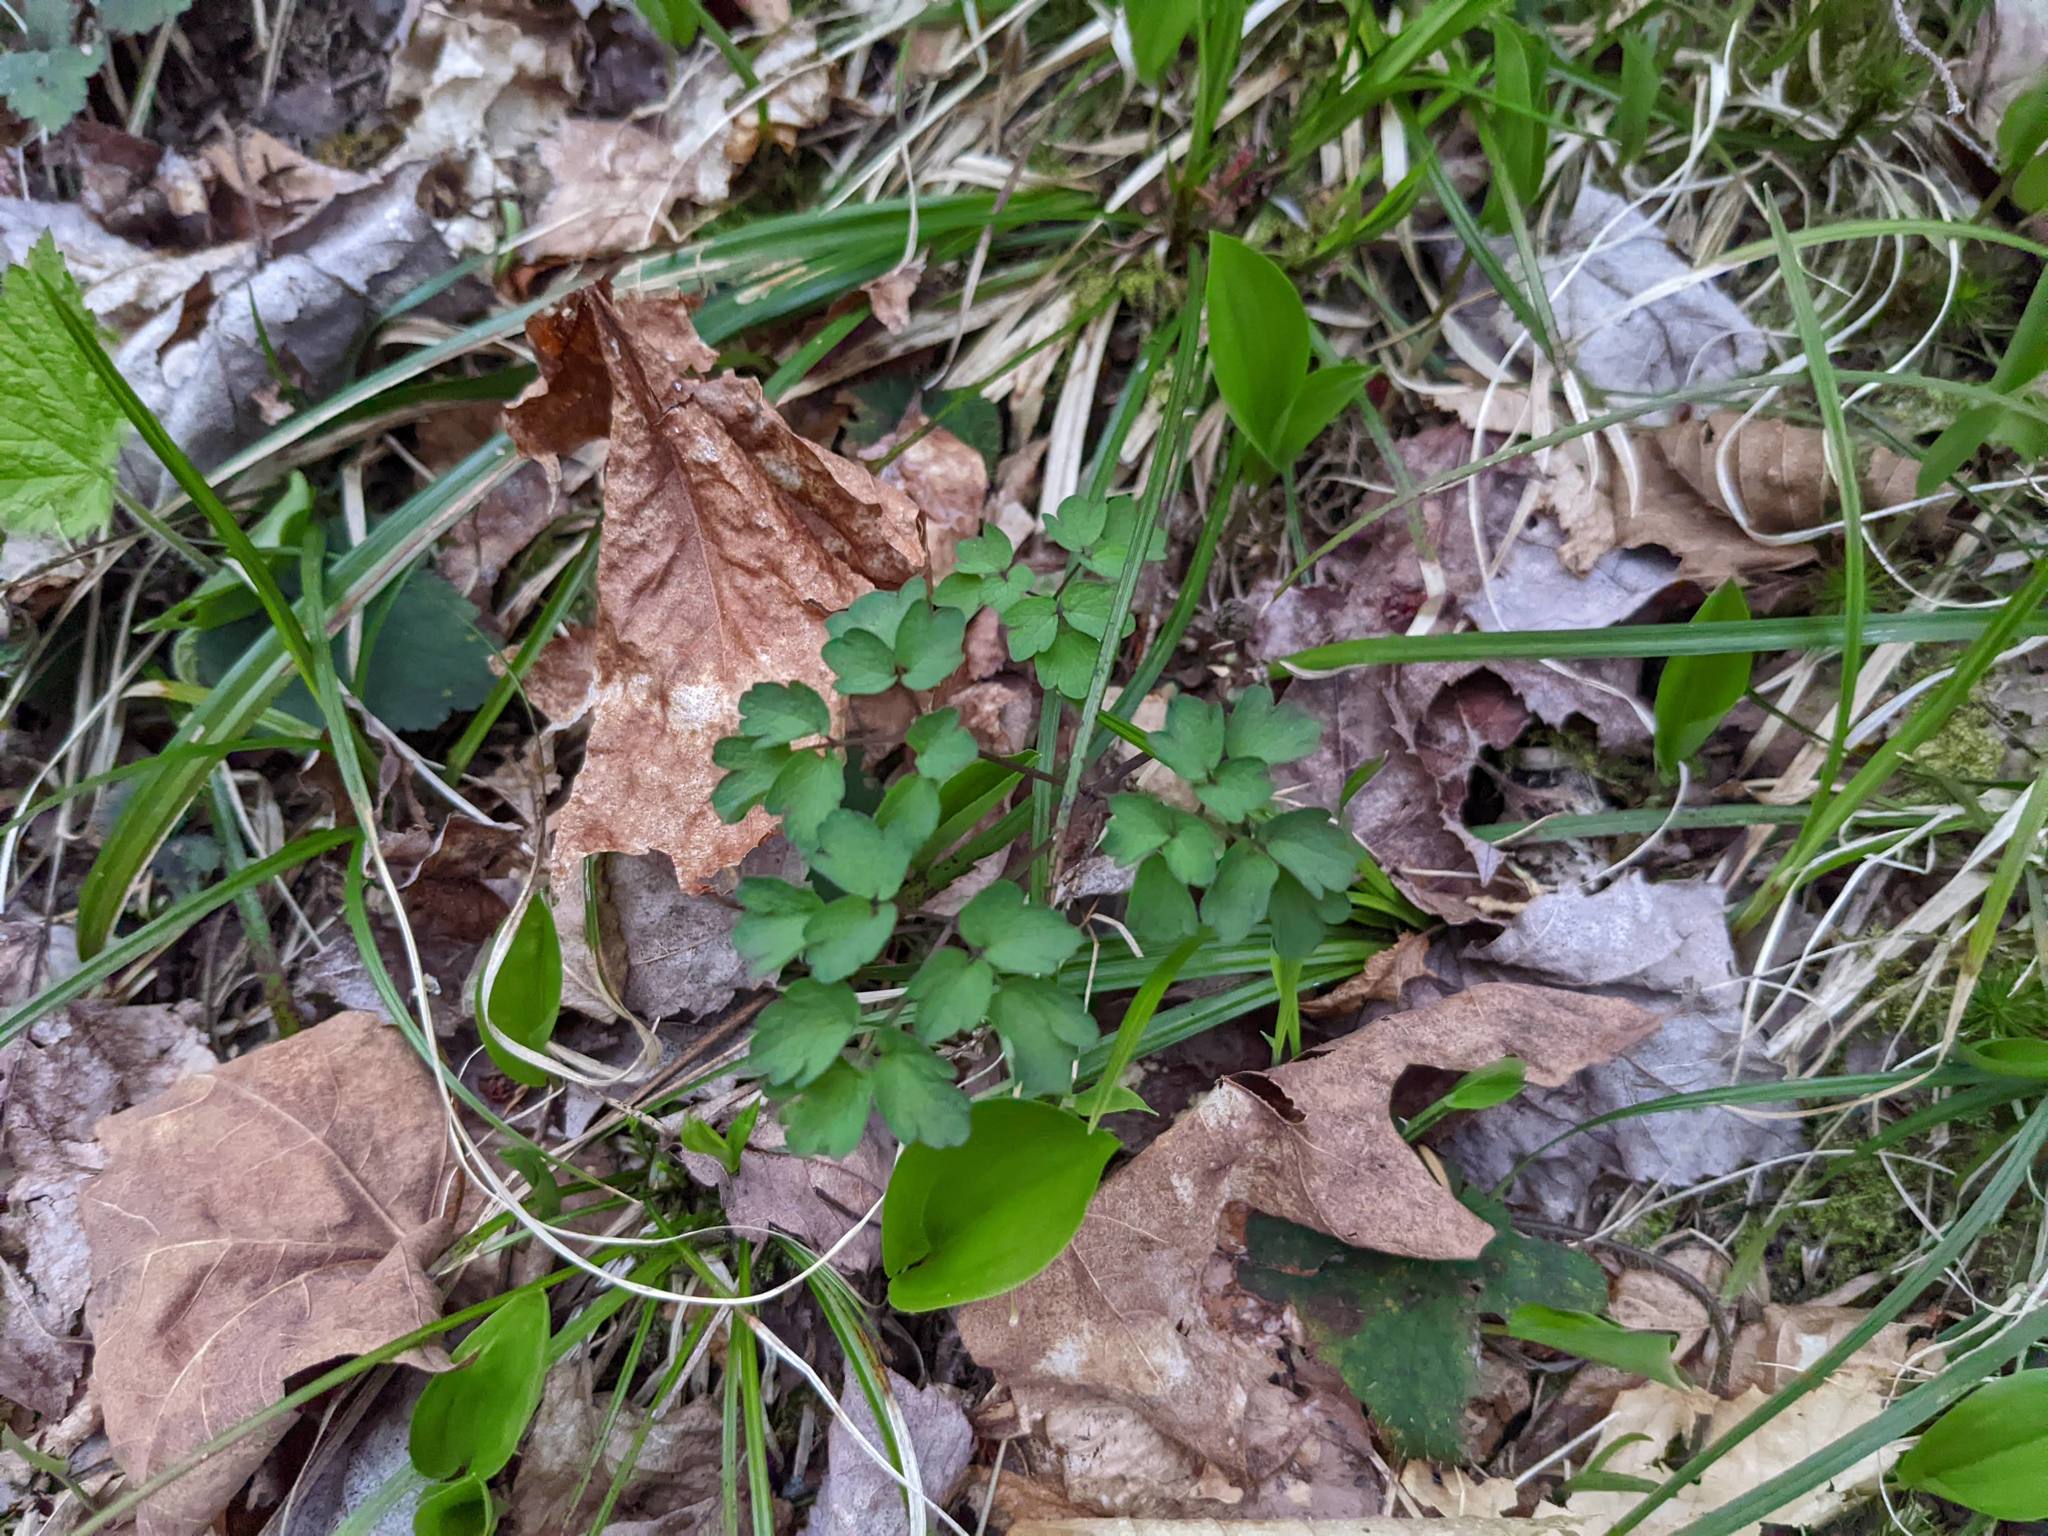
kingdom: Plantae
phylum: Tracheophyta
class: Liliopsida
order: Asparagales
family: Asparagaceae
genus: Maianthemum
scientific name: Maianthemum canadense
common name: False lily-of-the-valley
